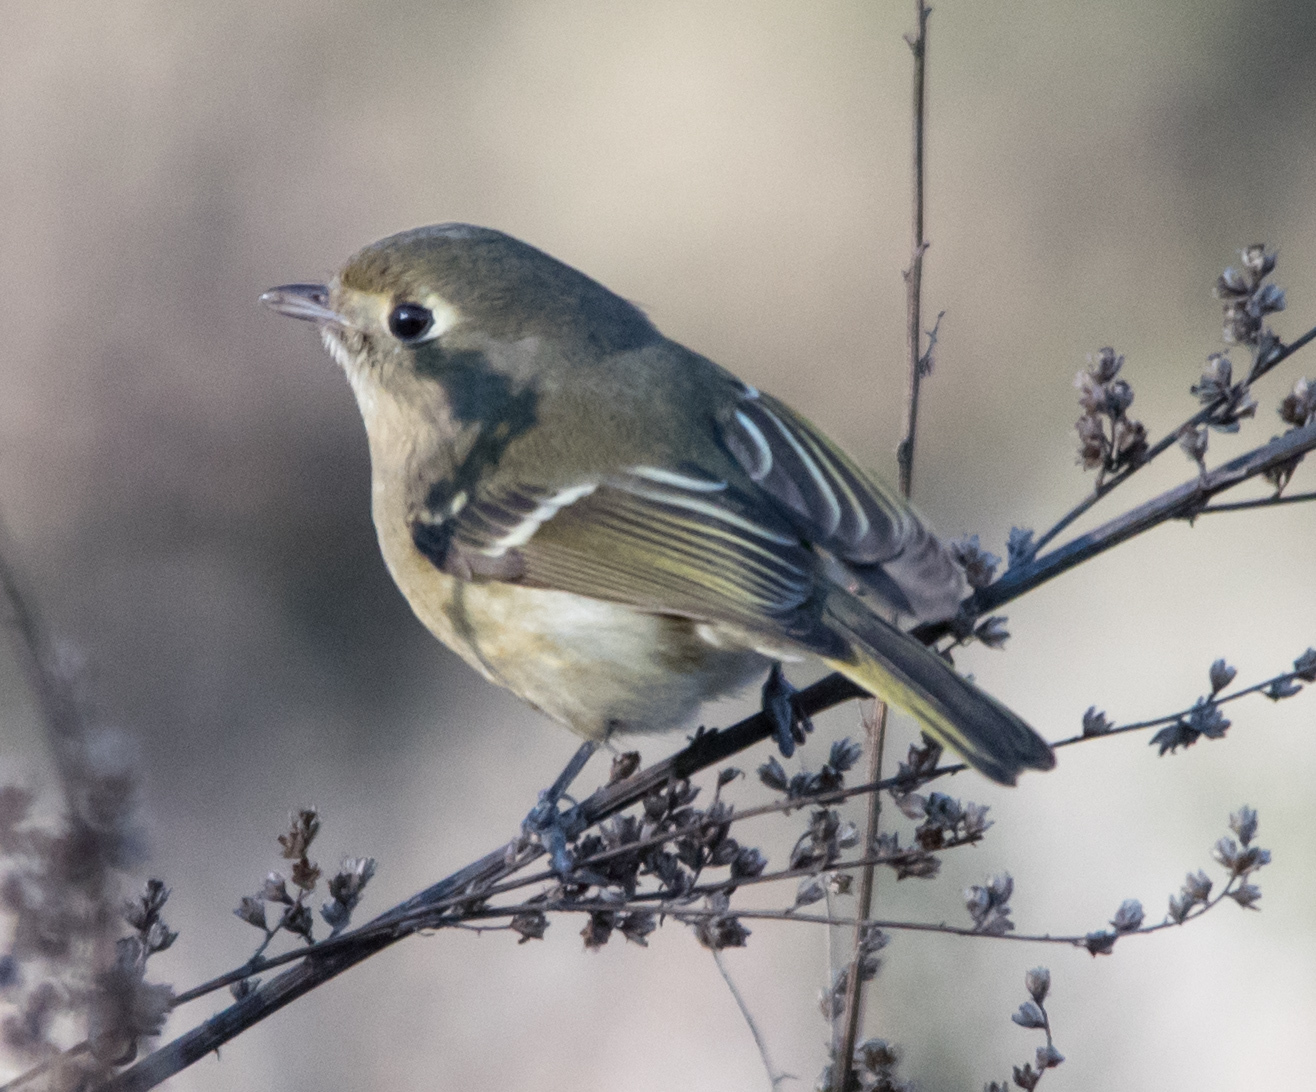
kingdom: Animalia
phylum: Chordata
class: Aves
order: Passeriformes
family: Vireonidae
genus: Vireo
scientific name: Vireo huttoni
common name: Hutton's vireo
